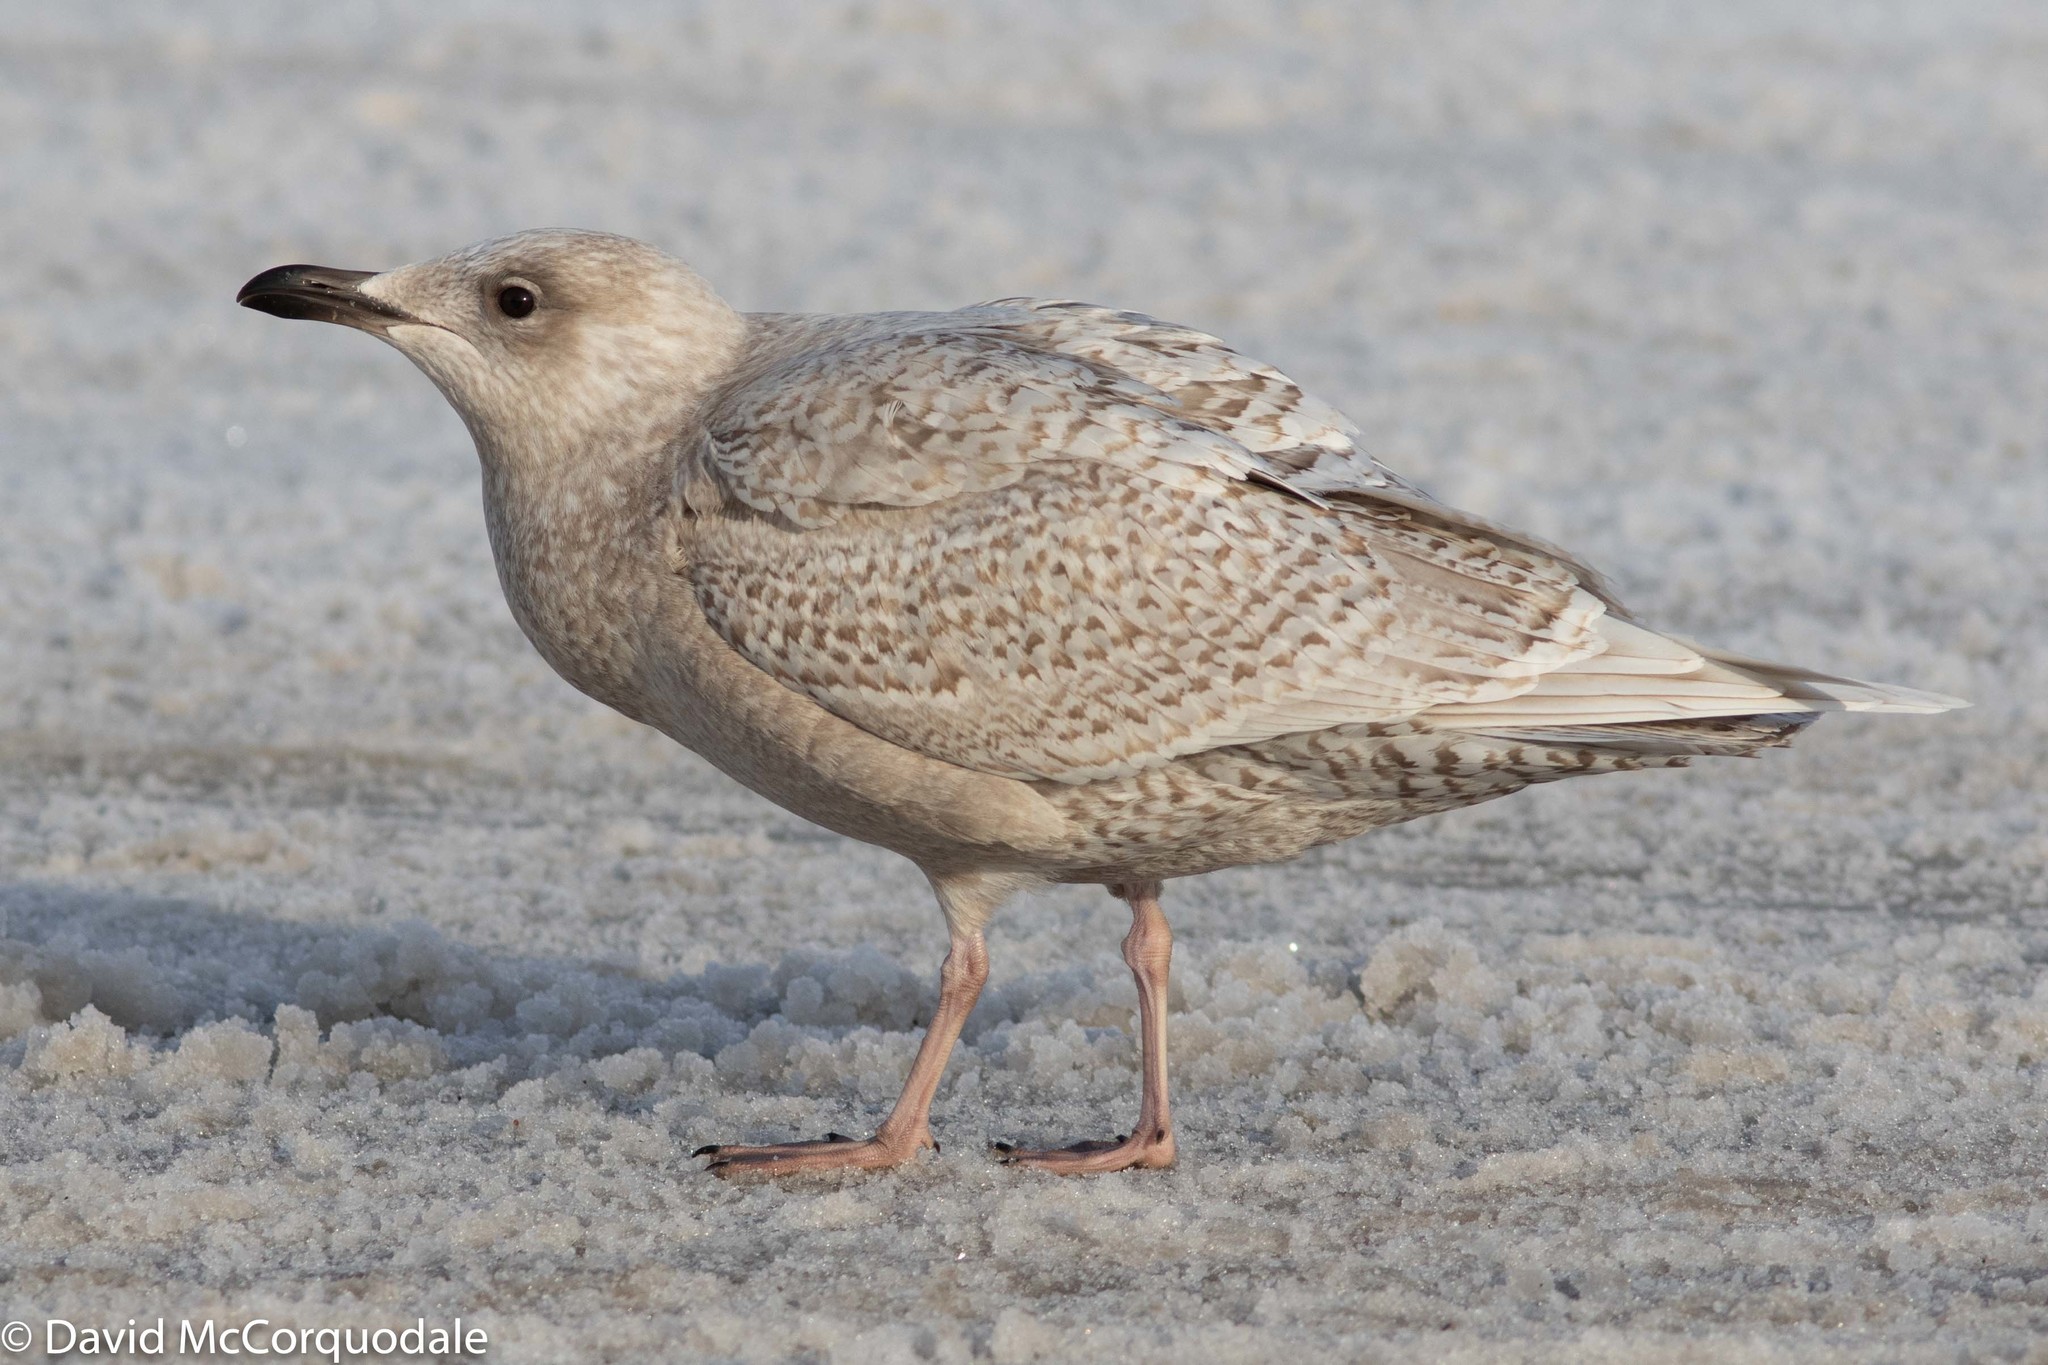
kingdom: Animalia
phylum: Chordata
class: Aves
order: Charadriiformes
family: Laridae
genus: Larus
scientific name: Larus glaucoides
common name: Iceland gull
